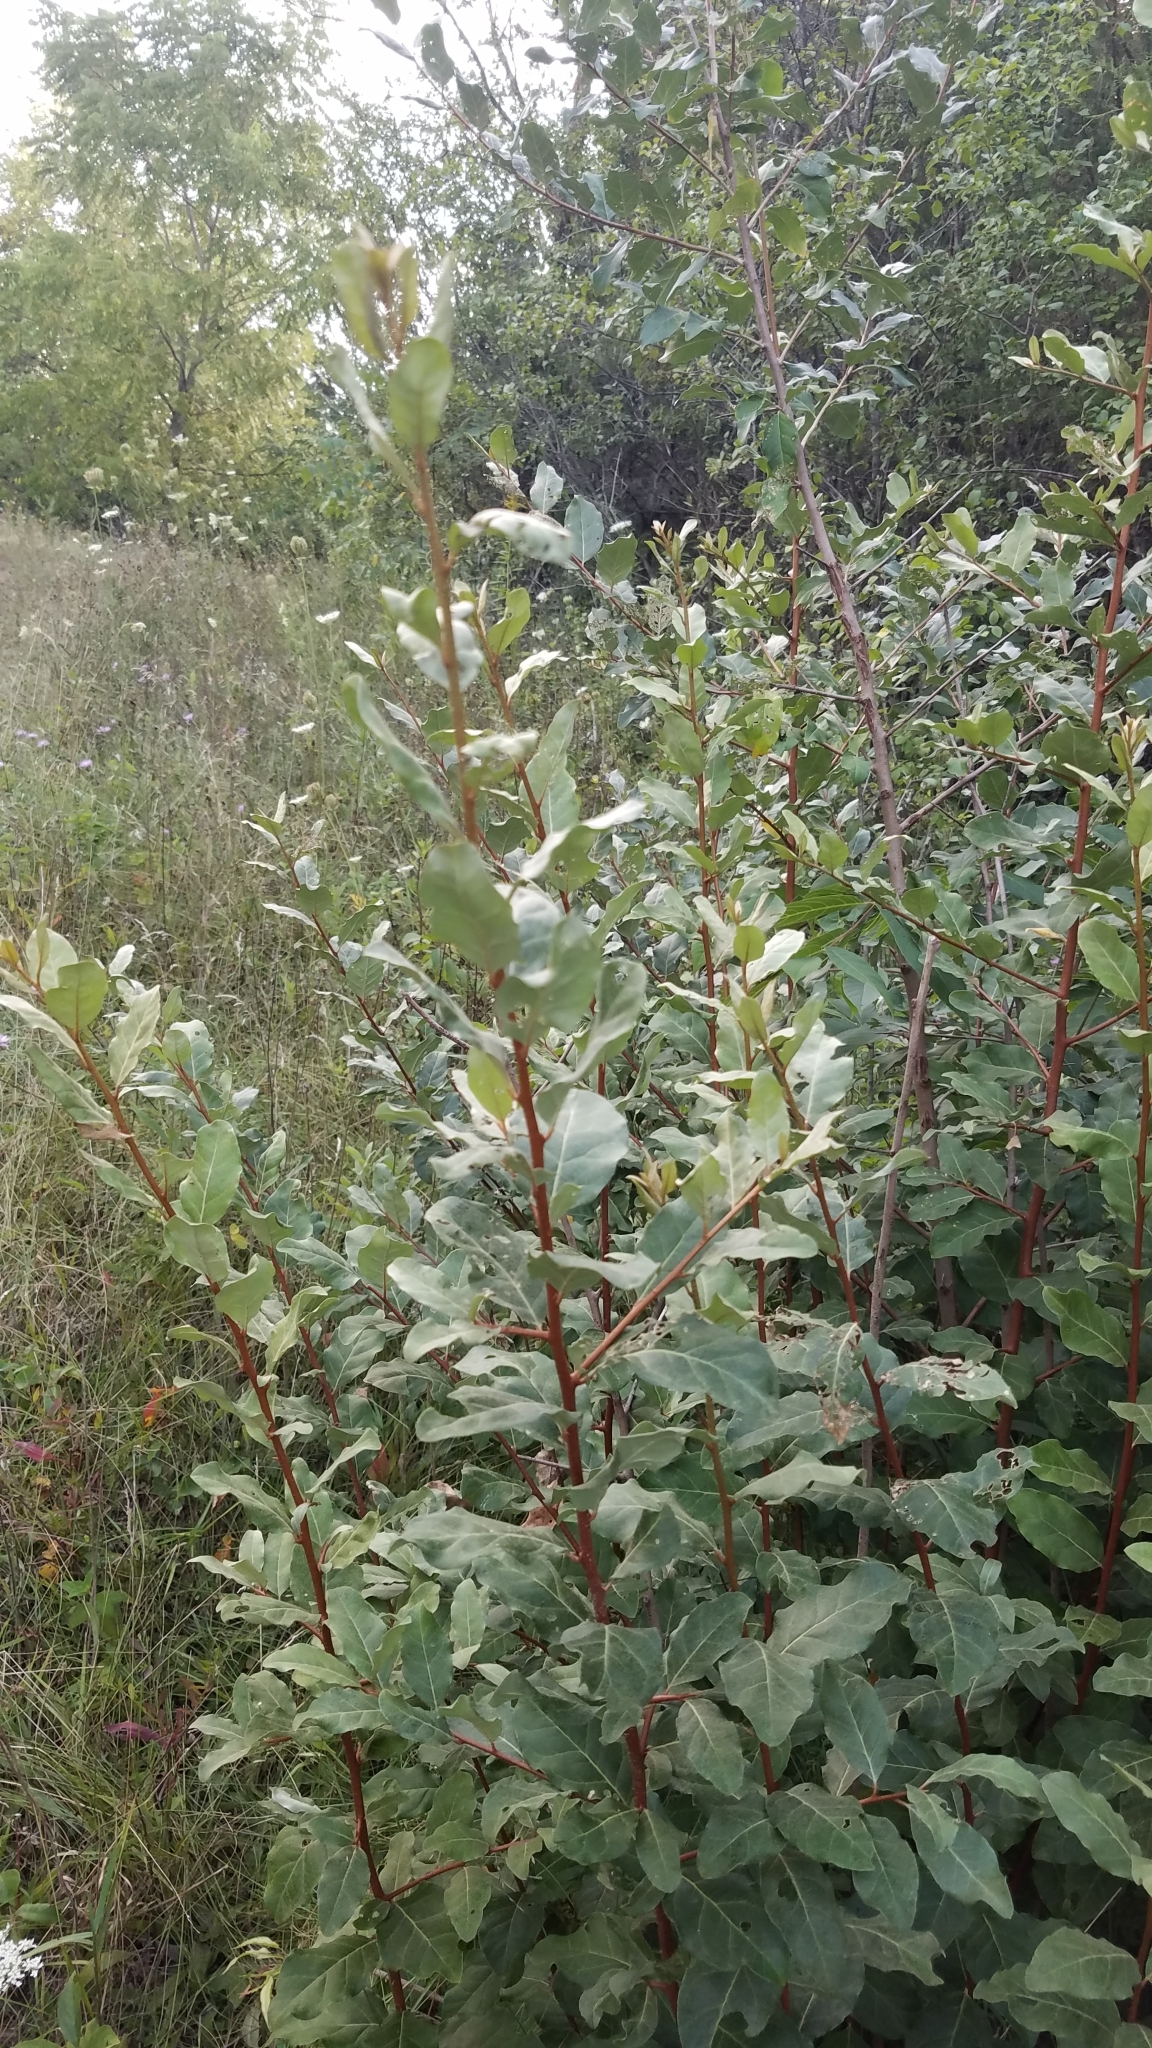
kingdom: Plantae
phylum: Tracheophyta
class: Magnoliopsida
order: Rosales
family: Elaeagnaceae
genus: Elaeagnus
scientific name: Elaeagnus umbellata
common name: Autumn olive
